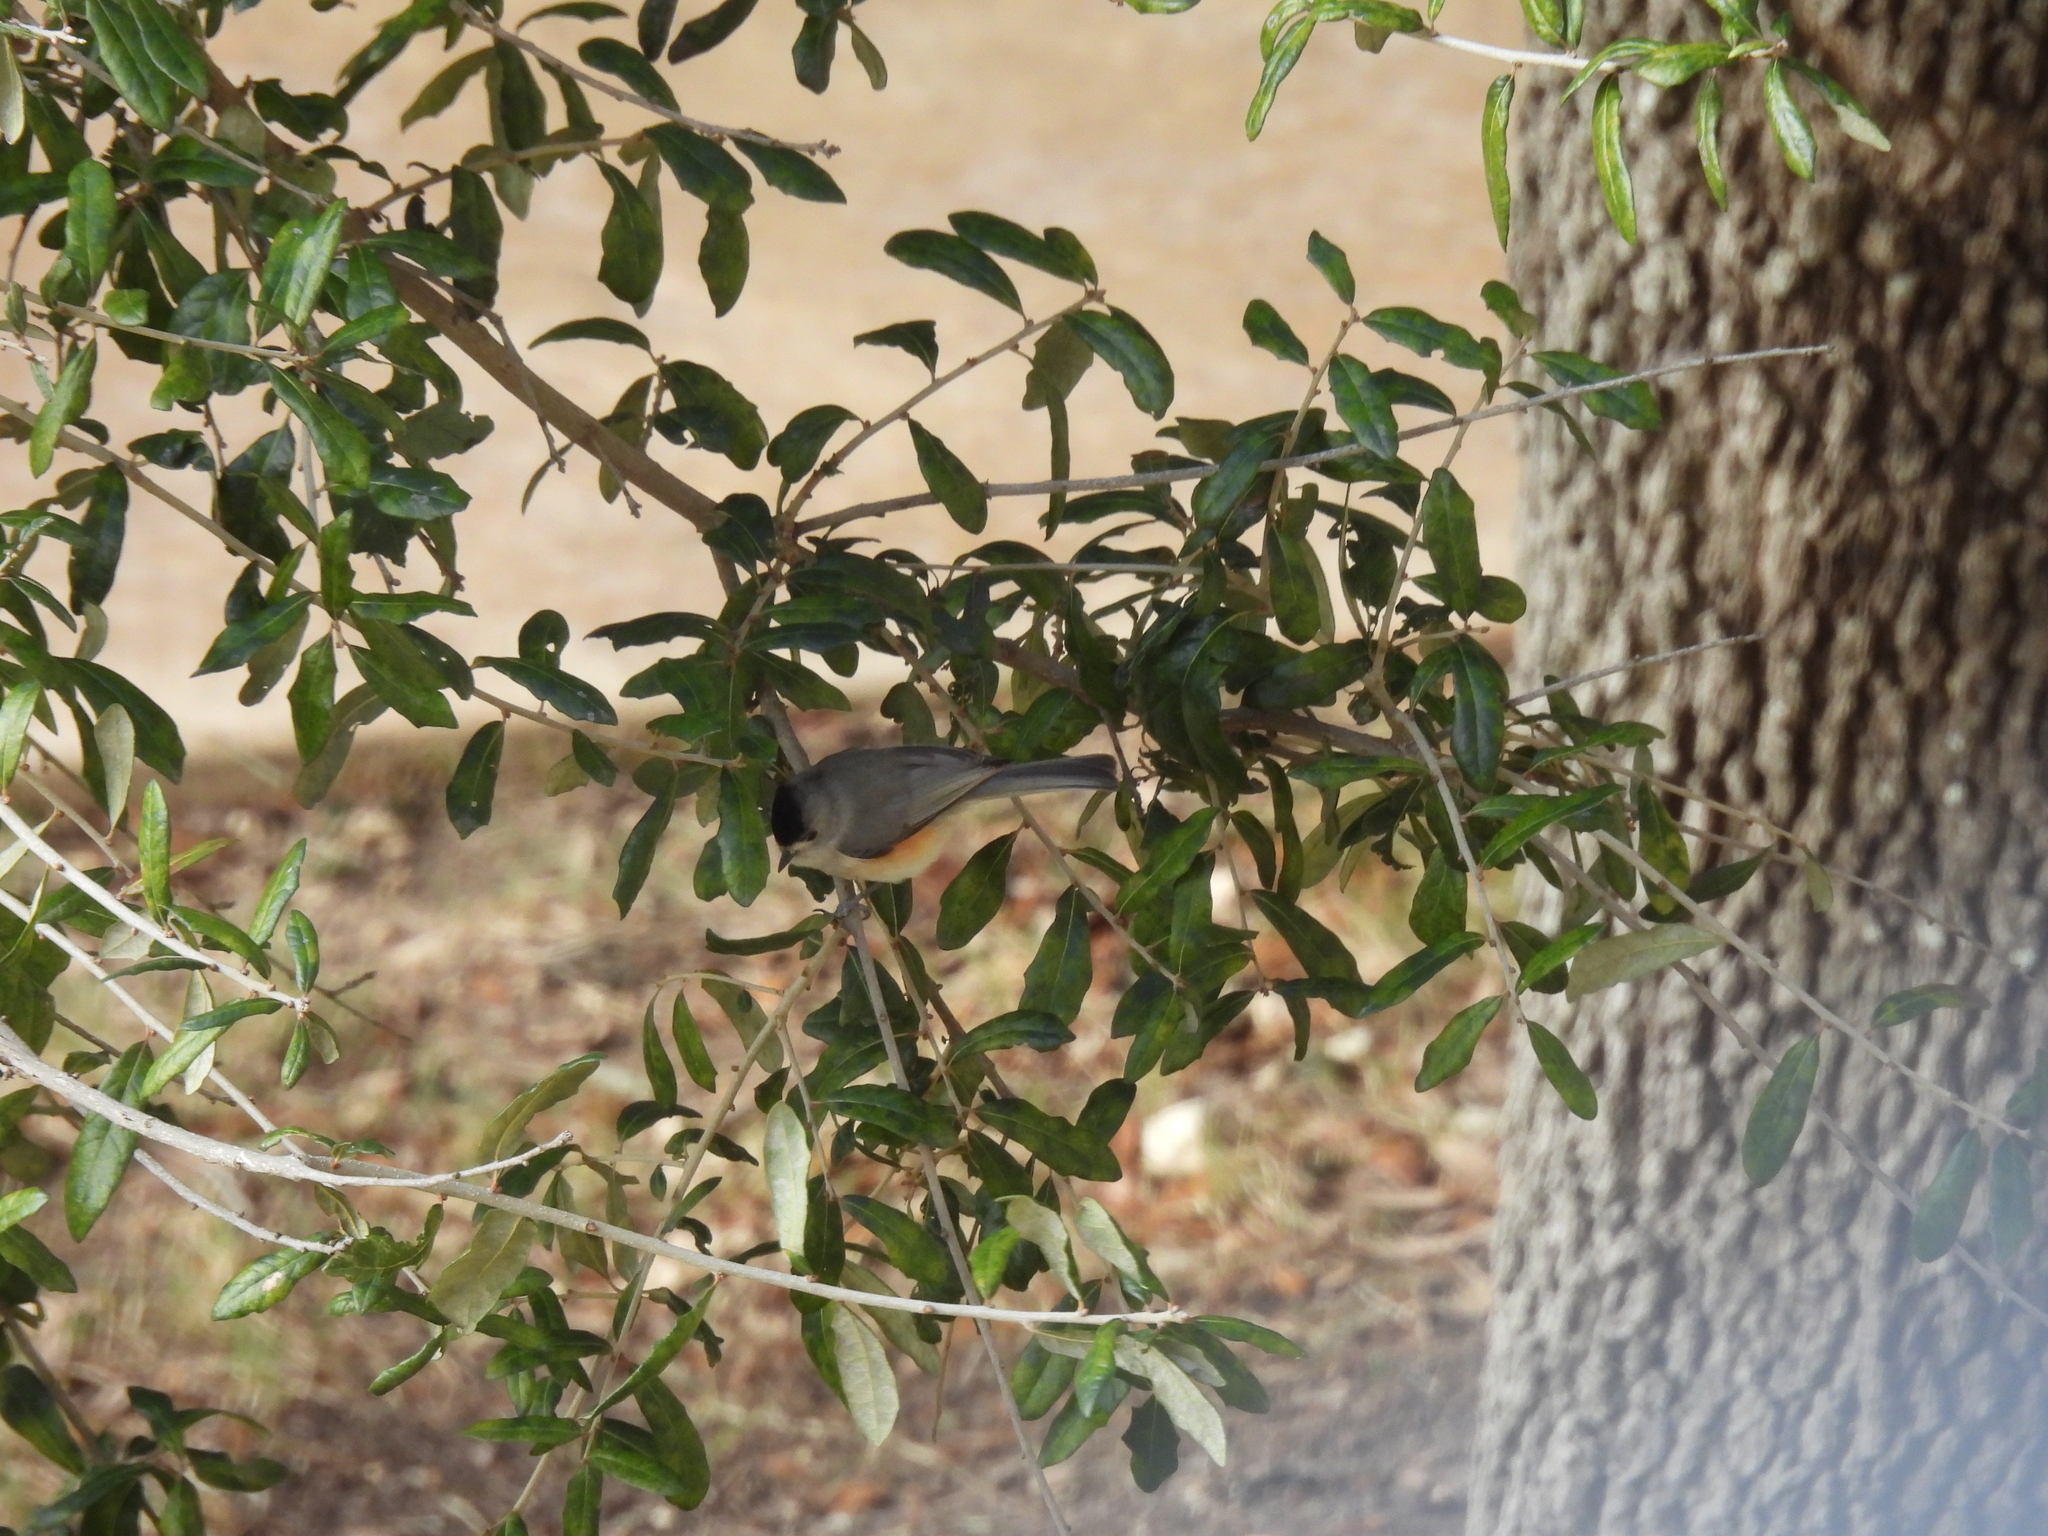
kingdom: Animalia
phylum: Chordata
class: Aves
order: Passeriformes
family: Paridae
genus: Baeolophus
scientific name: Baeolophus atricristatus
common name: Black-crested titmouse
